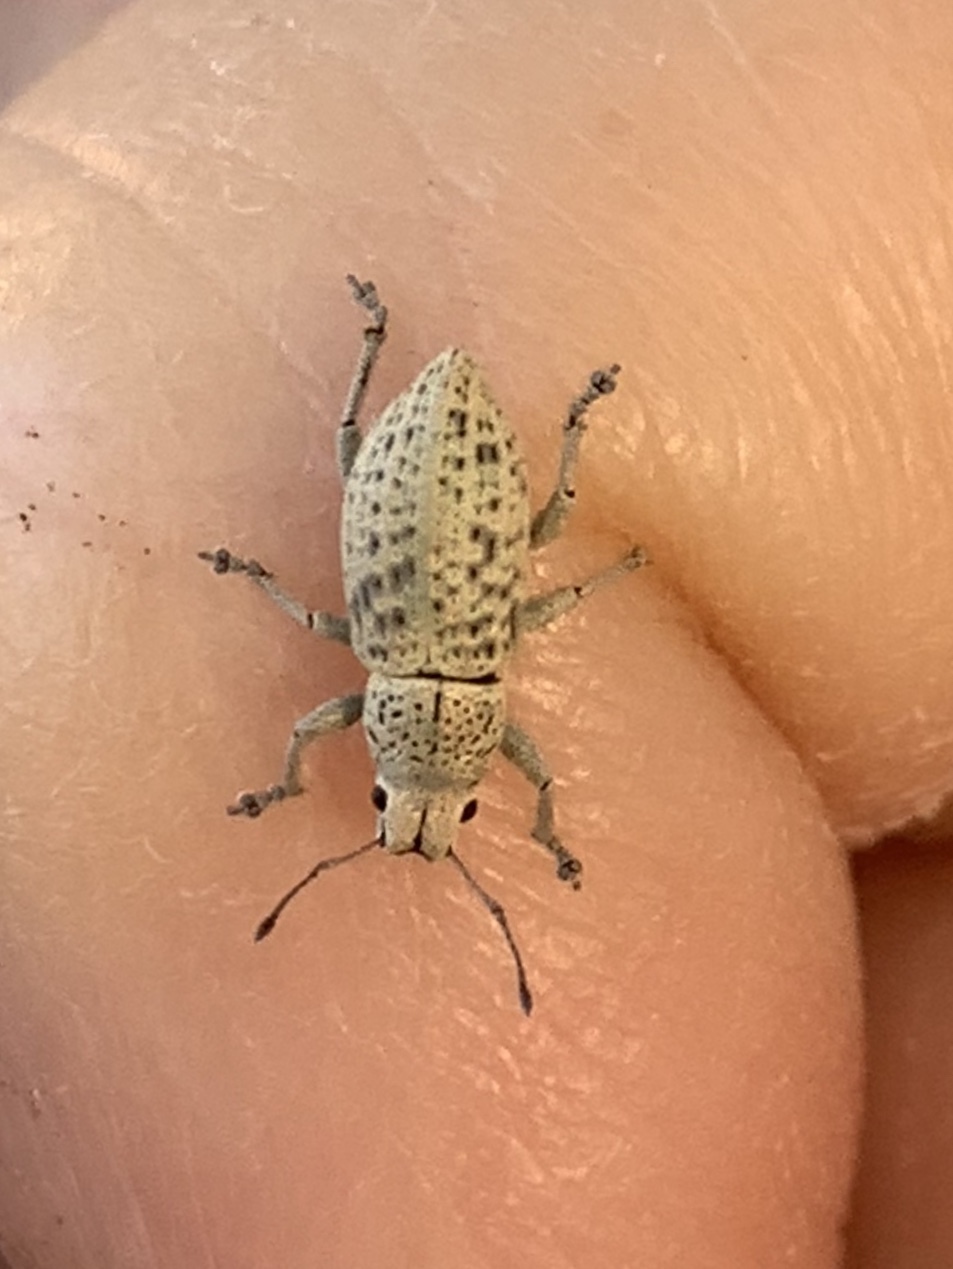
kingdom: Animalia
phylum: Arthropoda
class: Insecta
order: Coleoptera
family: Curculionidae
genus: Artipus
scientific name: Artipus floridanus
